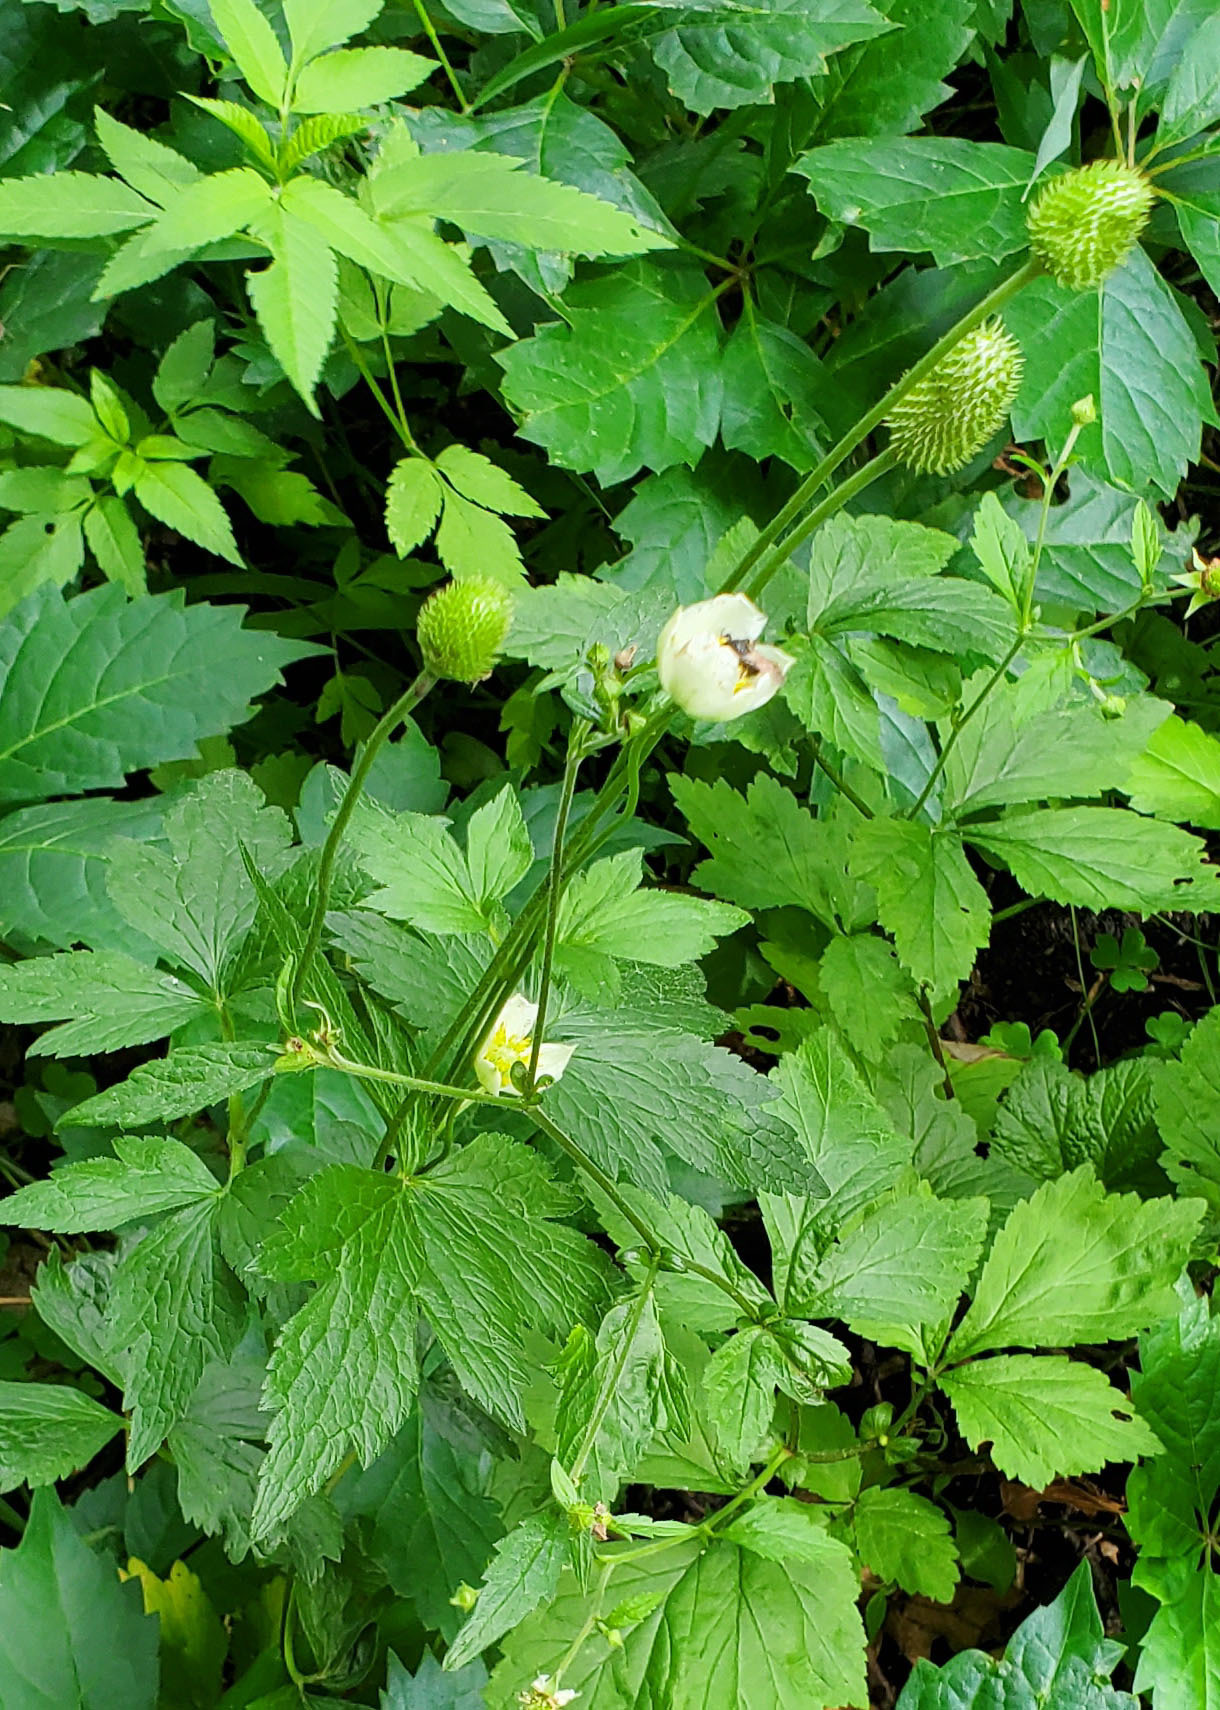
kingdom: Plantae
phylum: Tracheophyta
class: Magnoliopsida
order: Ranunculales
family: Ranunculaceae
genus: Anemone
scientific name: Anemone virginiana
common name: Tall anemone
